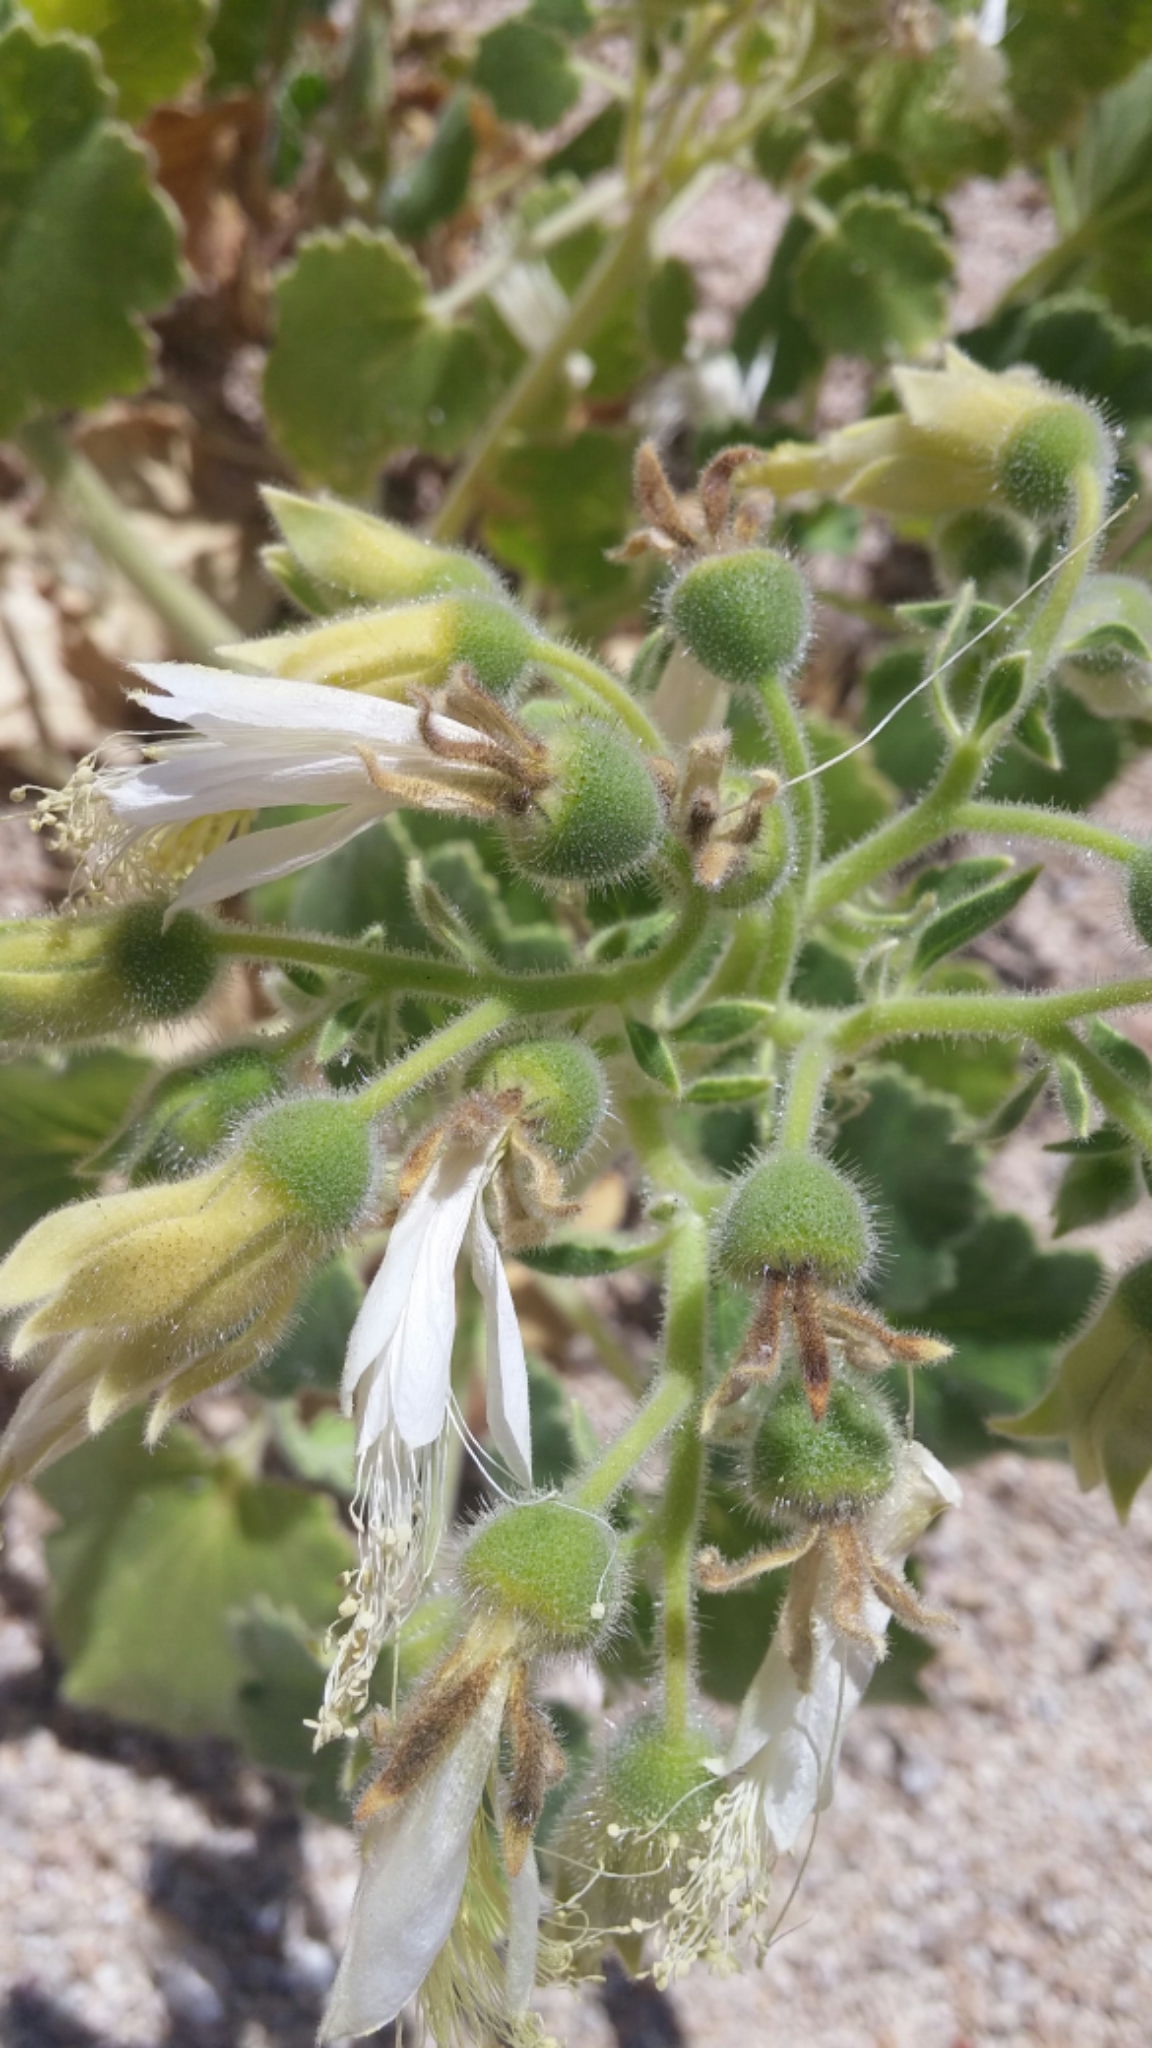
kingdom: Plantae
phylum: Tracheophyta
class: Magnoliopsida
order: Cornales
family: Loasaceae
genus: Eucnide
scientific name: Eucnide cordata
